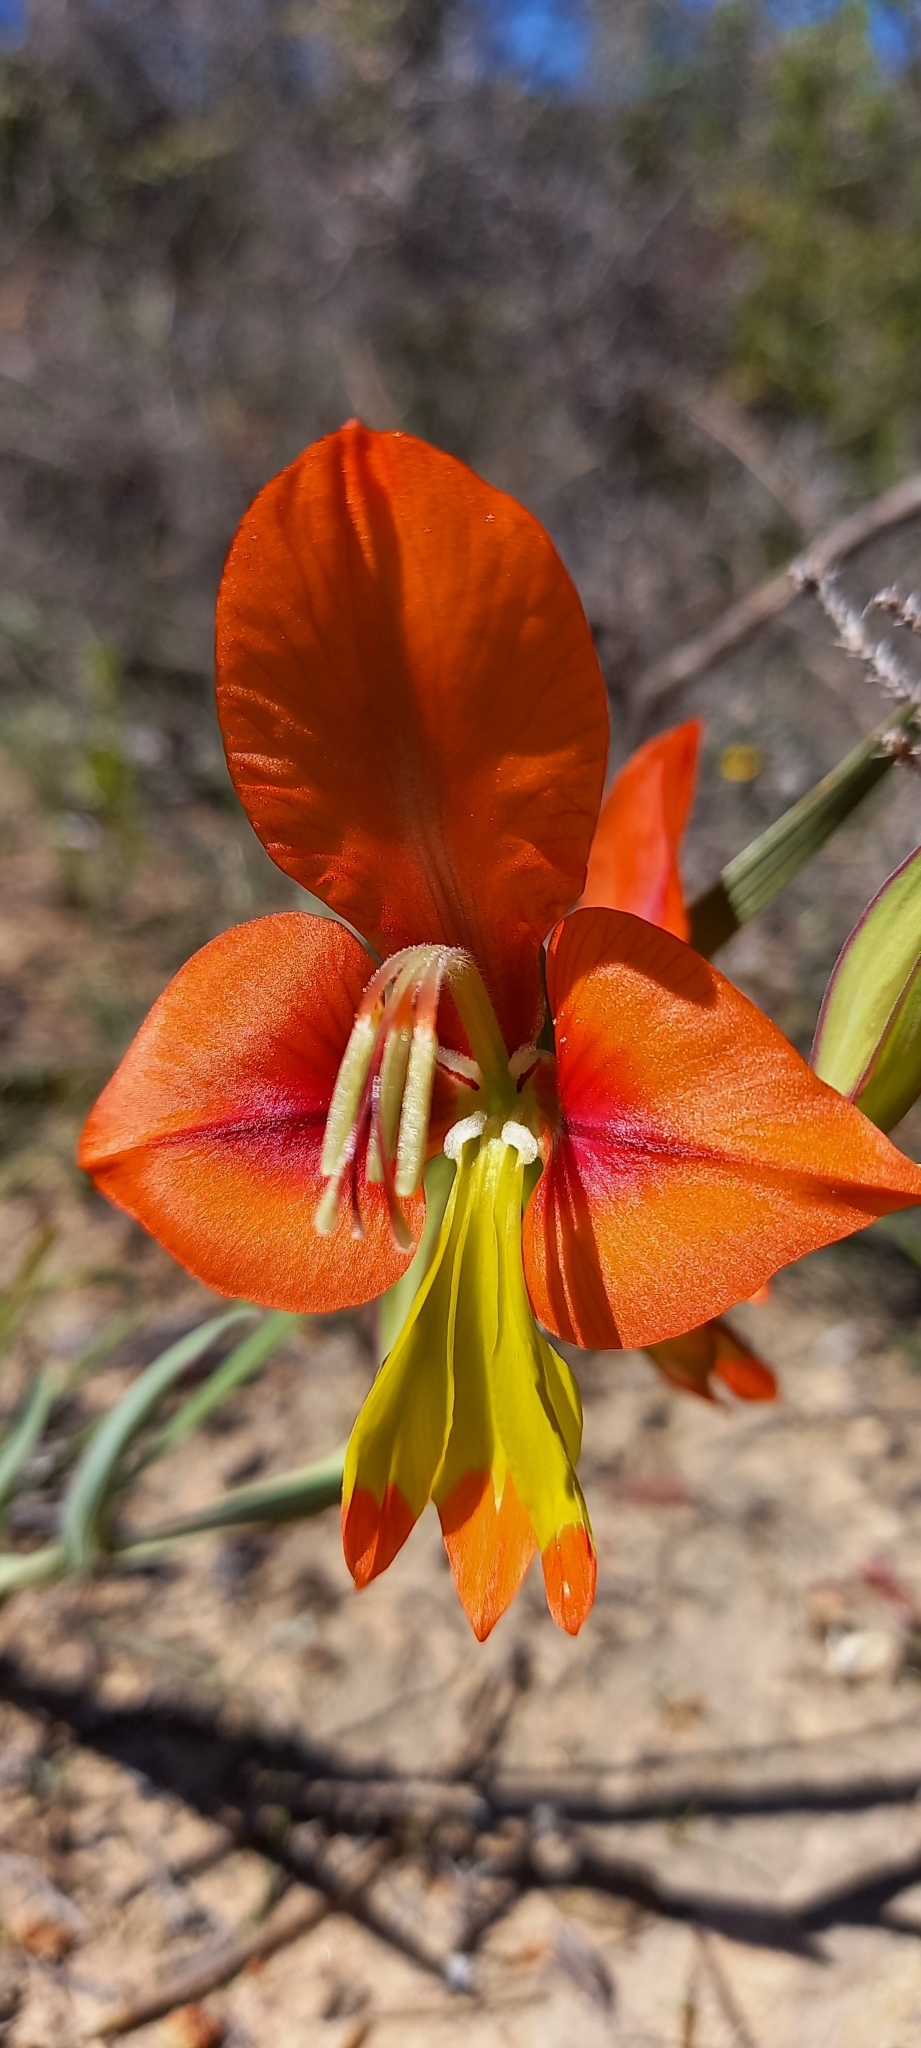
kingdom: Plantae
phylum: Tracheophyta
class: Liliopsida
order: Asparagales
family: Iridaceae
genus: Gladiolus
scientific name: Gladiolus alatus
